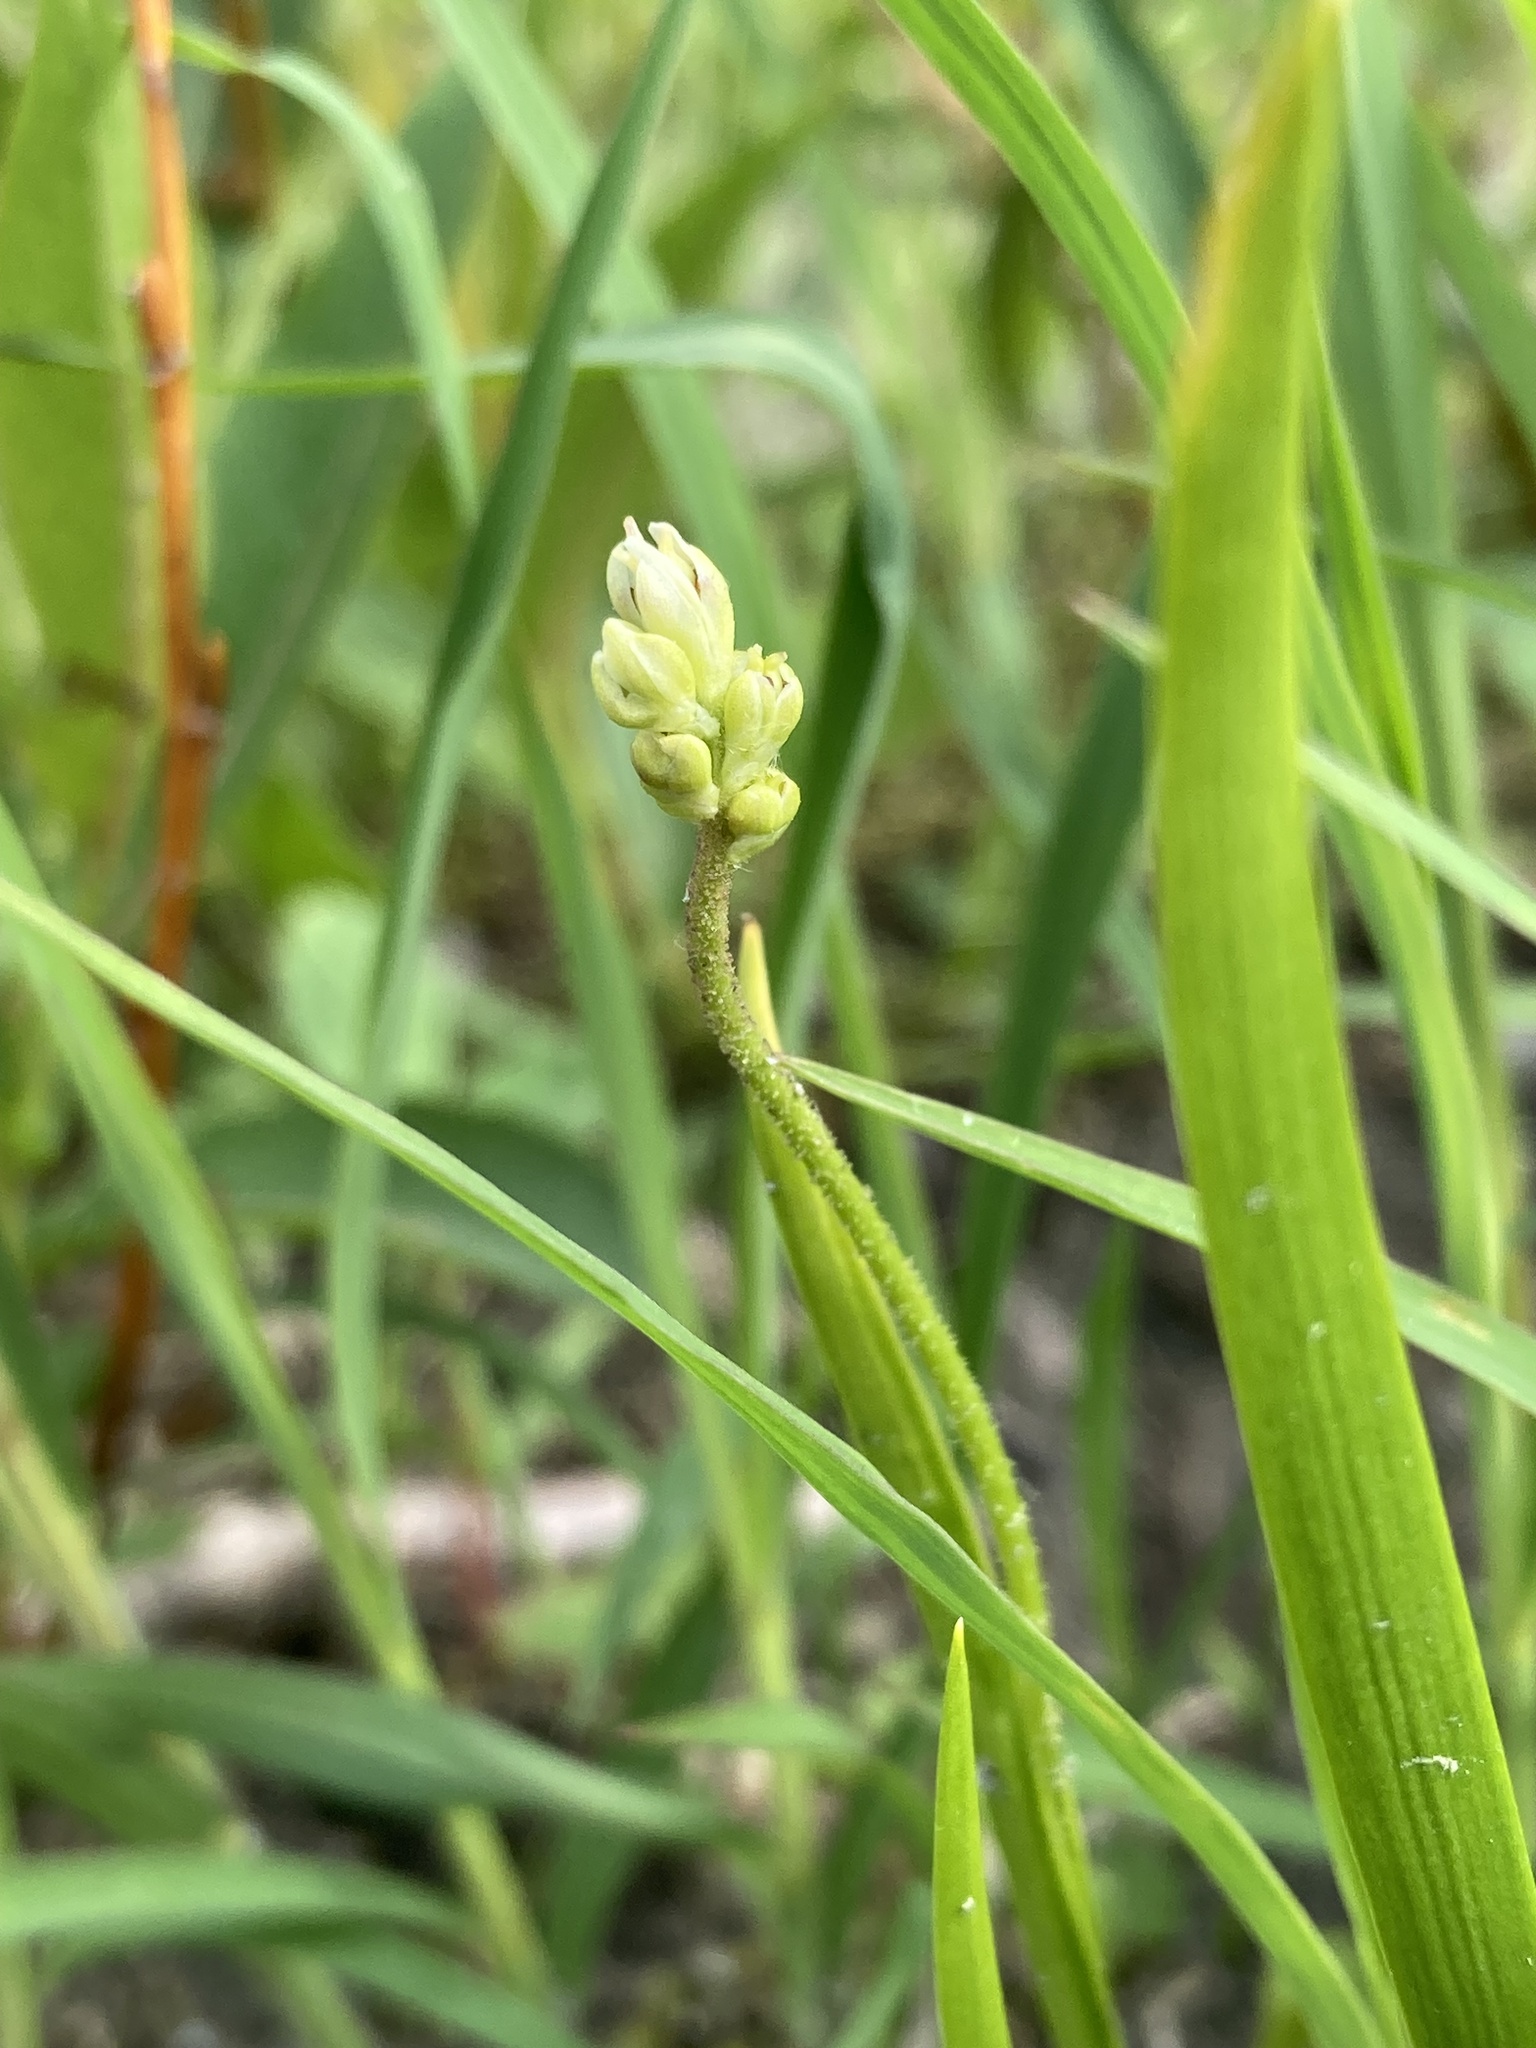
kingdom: Plantae
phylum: Tracheophyta
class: Liliopsida
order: Alismatales
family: Tofieldiaceae
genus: Triantha
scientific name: Triantha glutinosa
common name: Glutinous tofieldia
